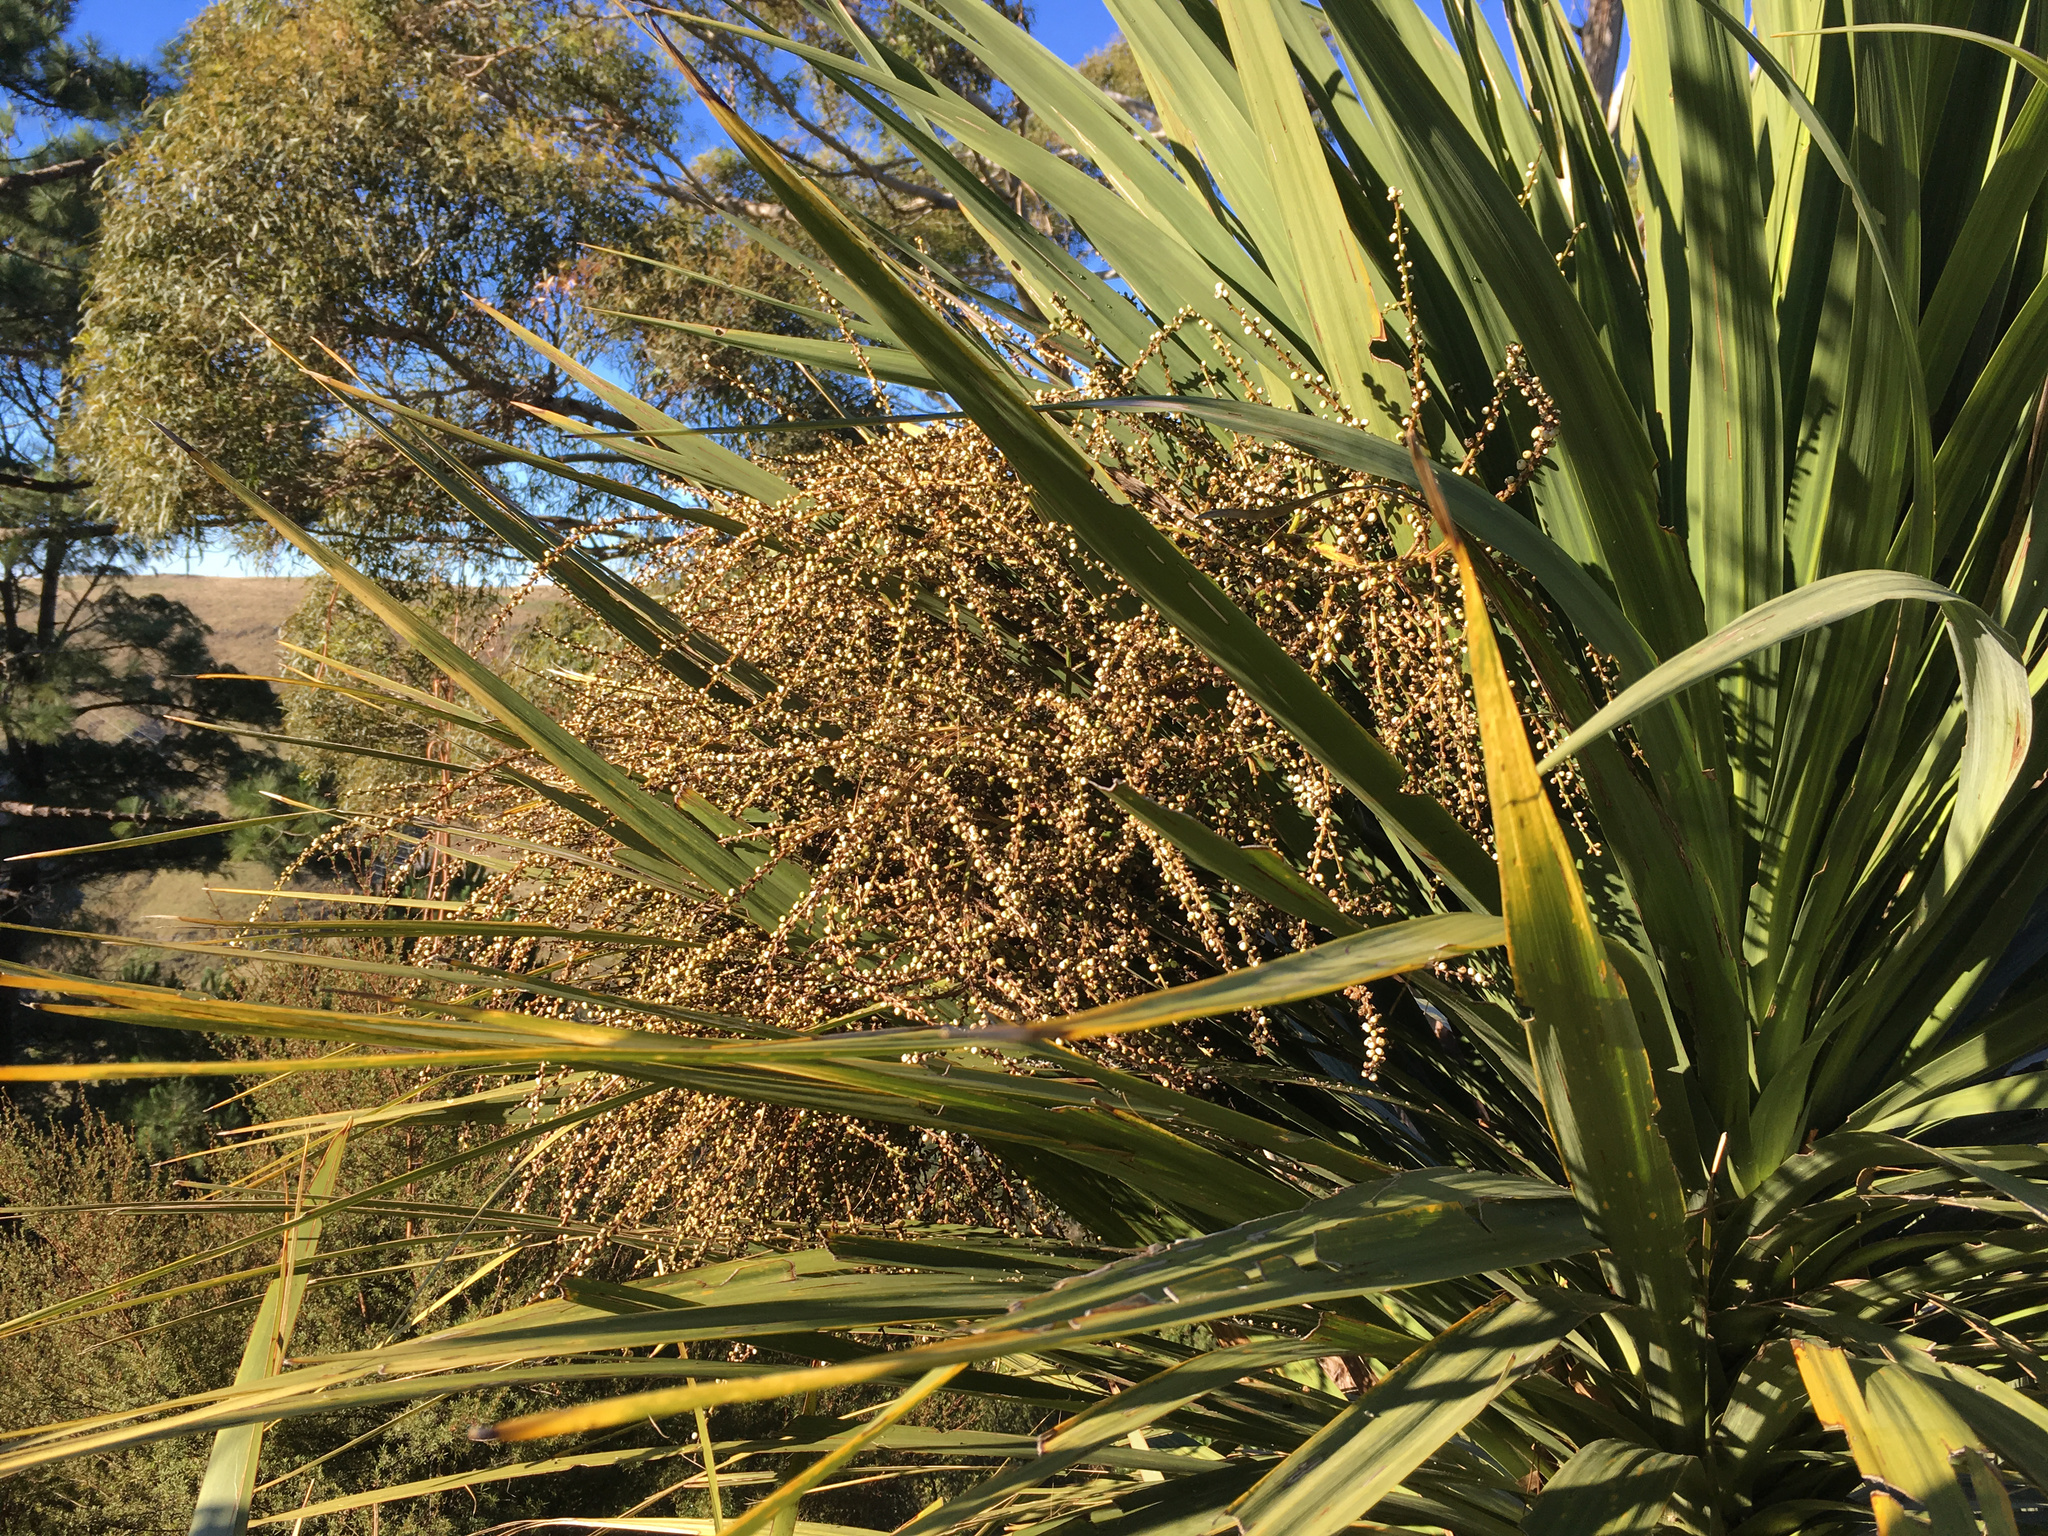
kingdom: Plantae
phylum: Tracheophyta
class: Liliopsida
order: Asparagales
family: Asparagaceae
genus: Cordyline
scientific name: Cordyline australis
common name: Cabbage-palm
